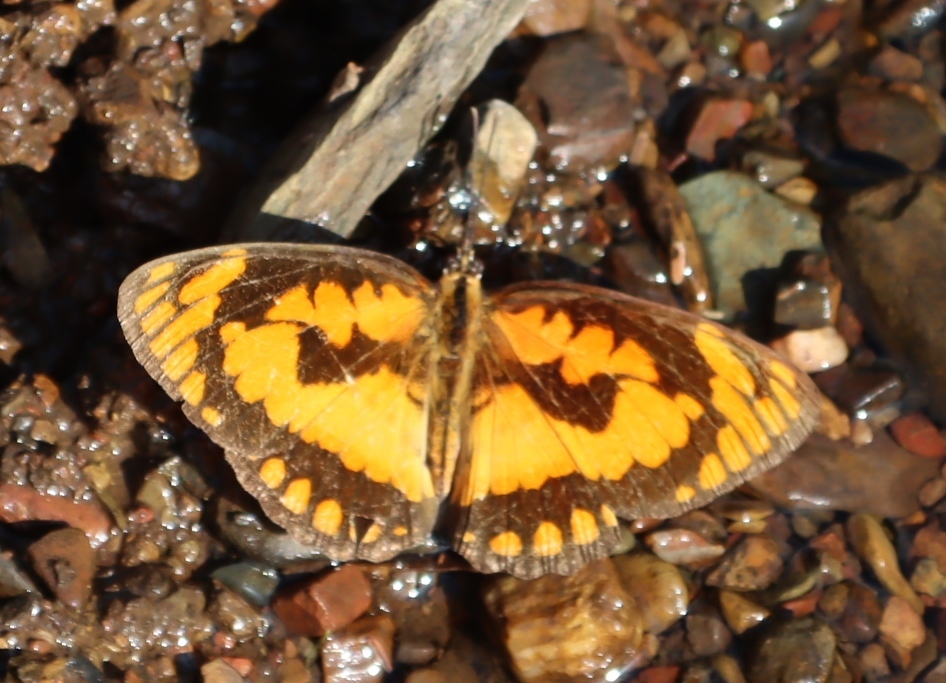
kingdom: Animalia
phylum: Arthropoda
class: Insecta
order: Lepidoptera
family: Nymphalidae
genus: Byblia
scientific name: Byblia acheloia
